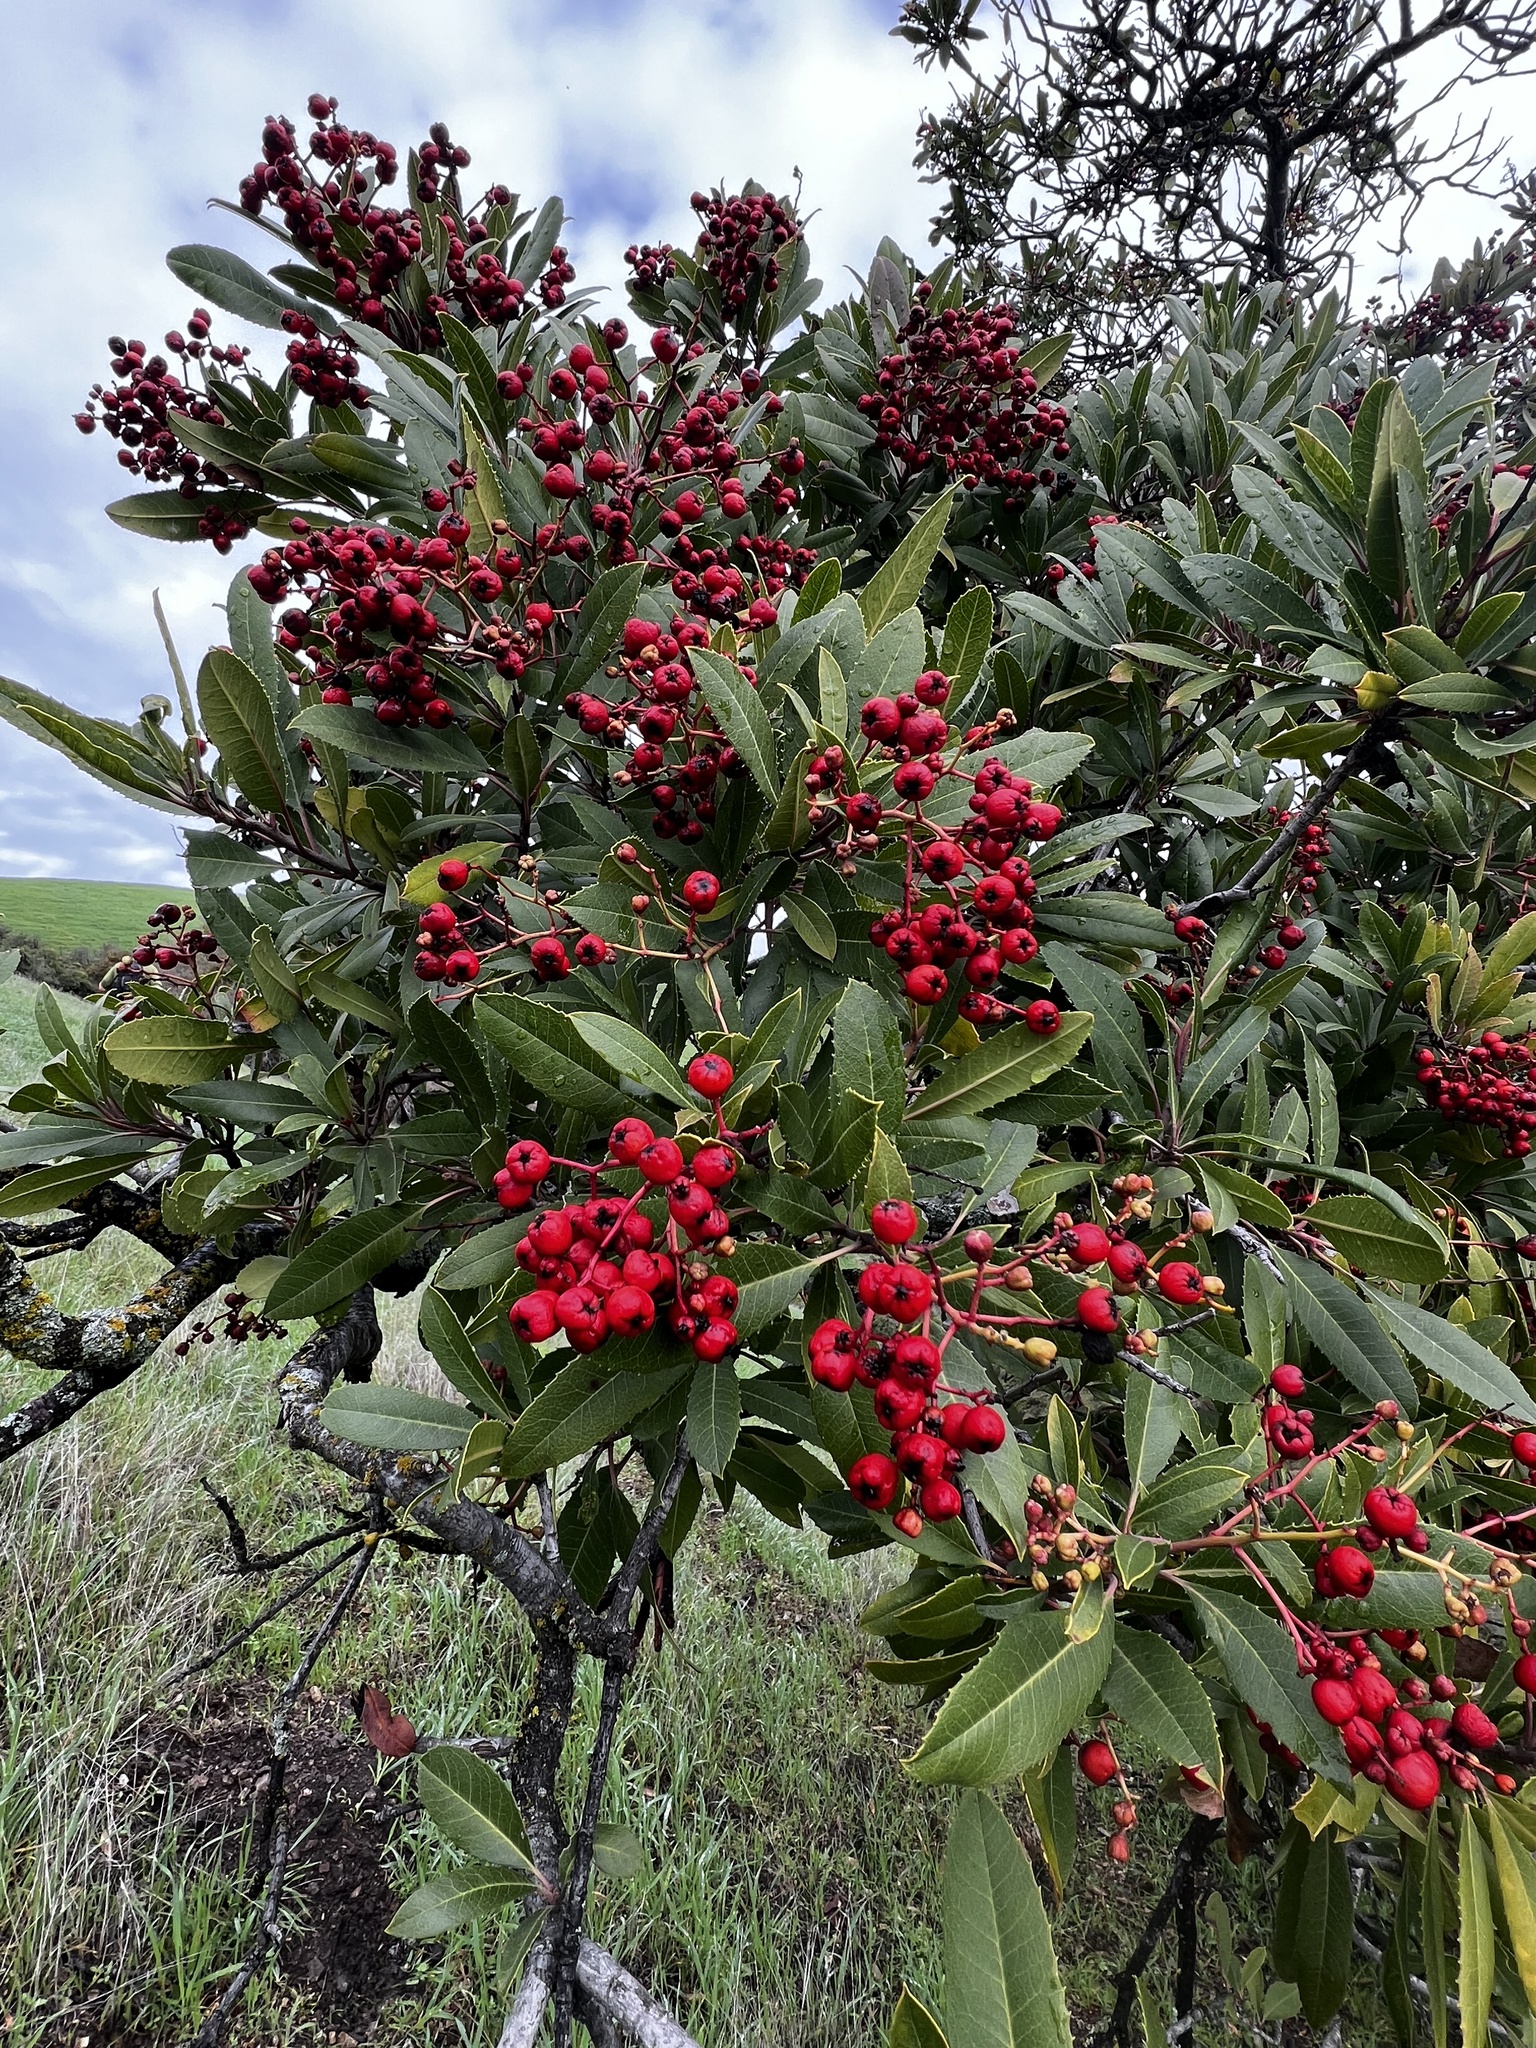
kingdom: Plantae
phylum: Tracheophyta
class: Magnoliopsida
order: Rosales
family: Rosaceae
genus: Heteromeles
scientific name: Heteromeles arbutifolia
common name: California-holly
